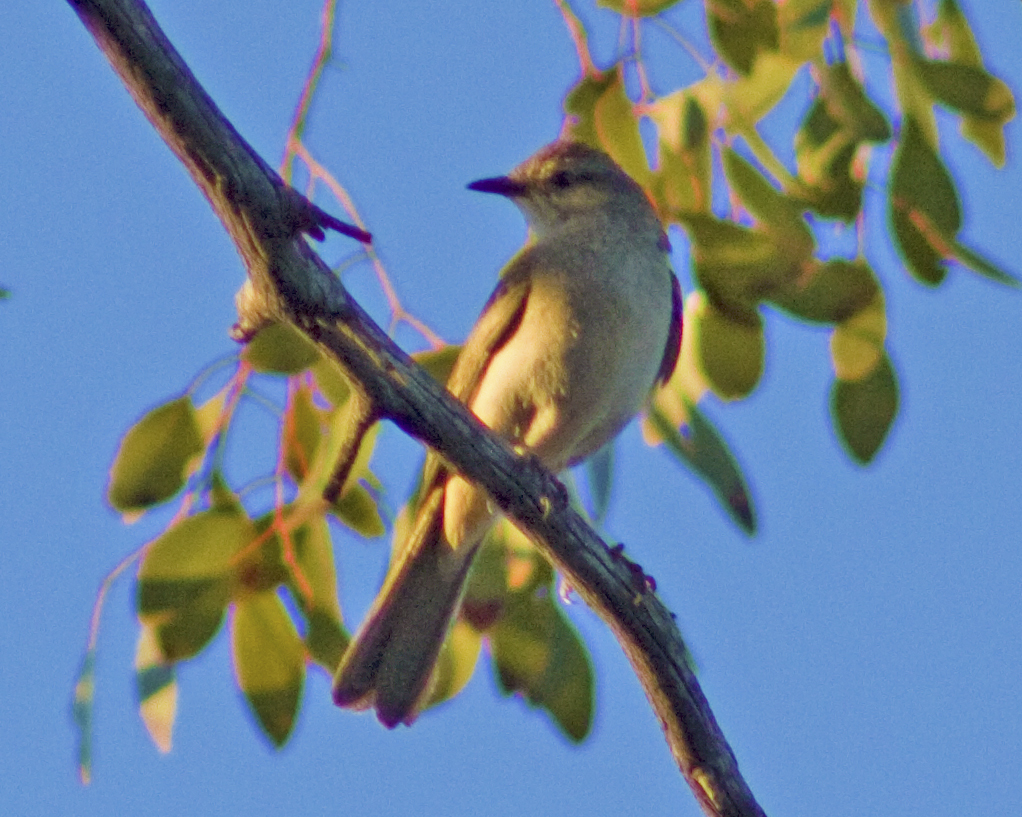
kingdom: Animalia
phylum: Chordata
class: Aves
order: Passeriformes
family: Locustellidae
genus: Megalurus
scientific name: Megalurus mathewsi
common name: Rufous songlark
